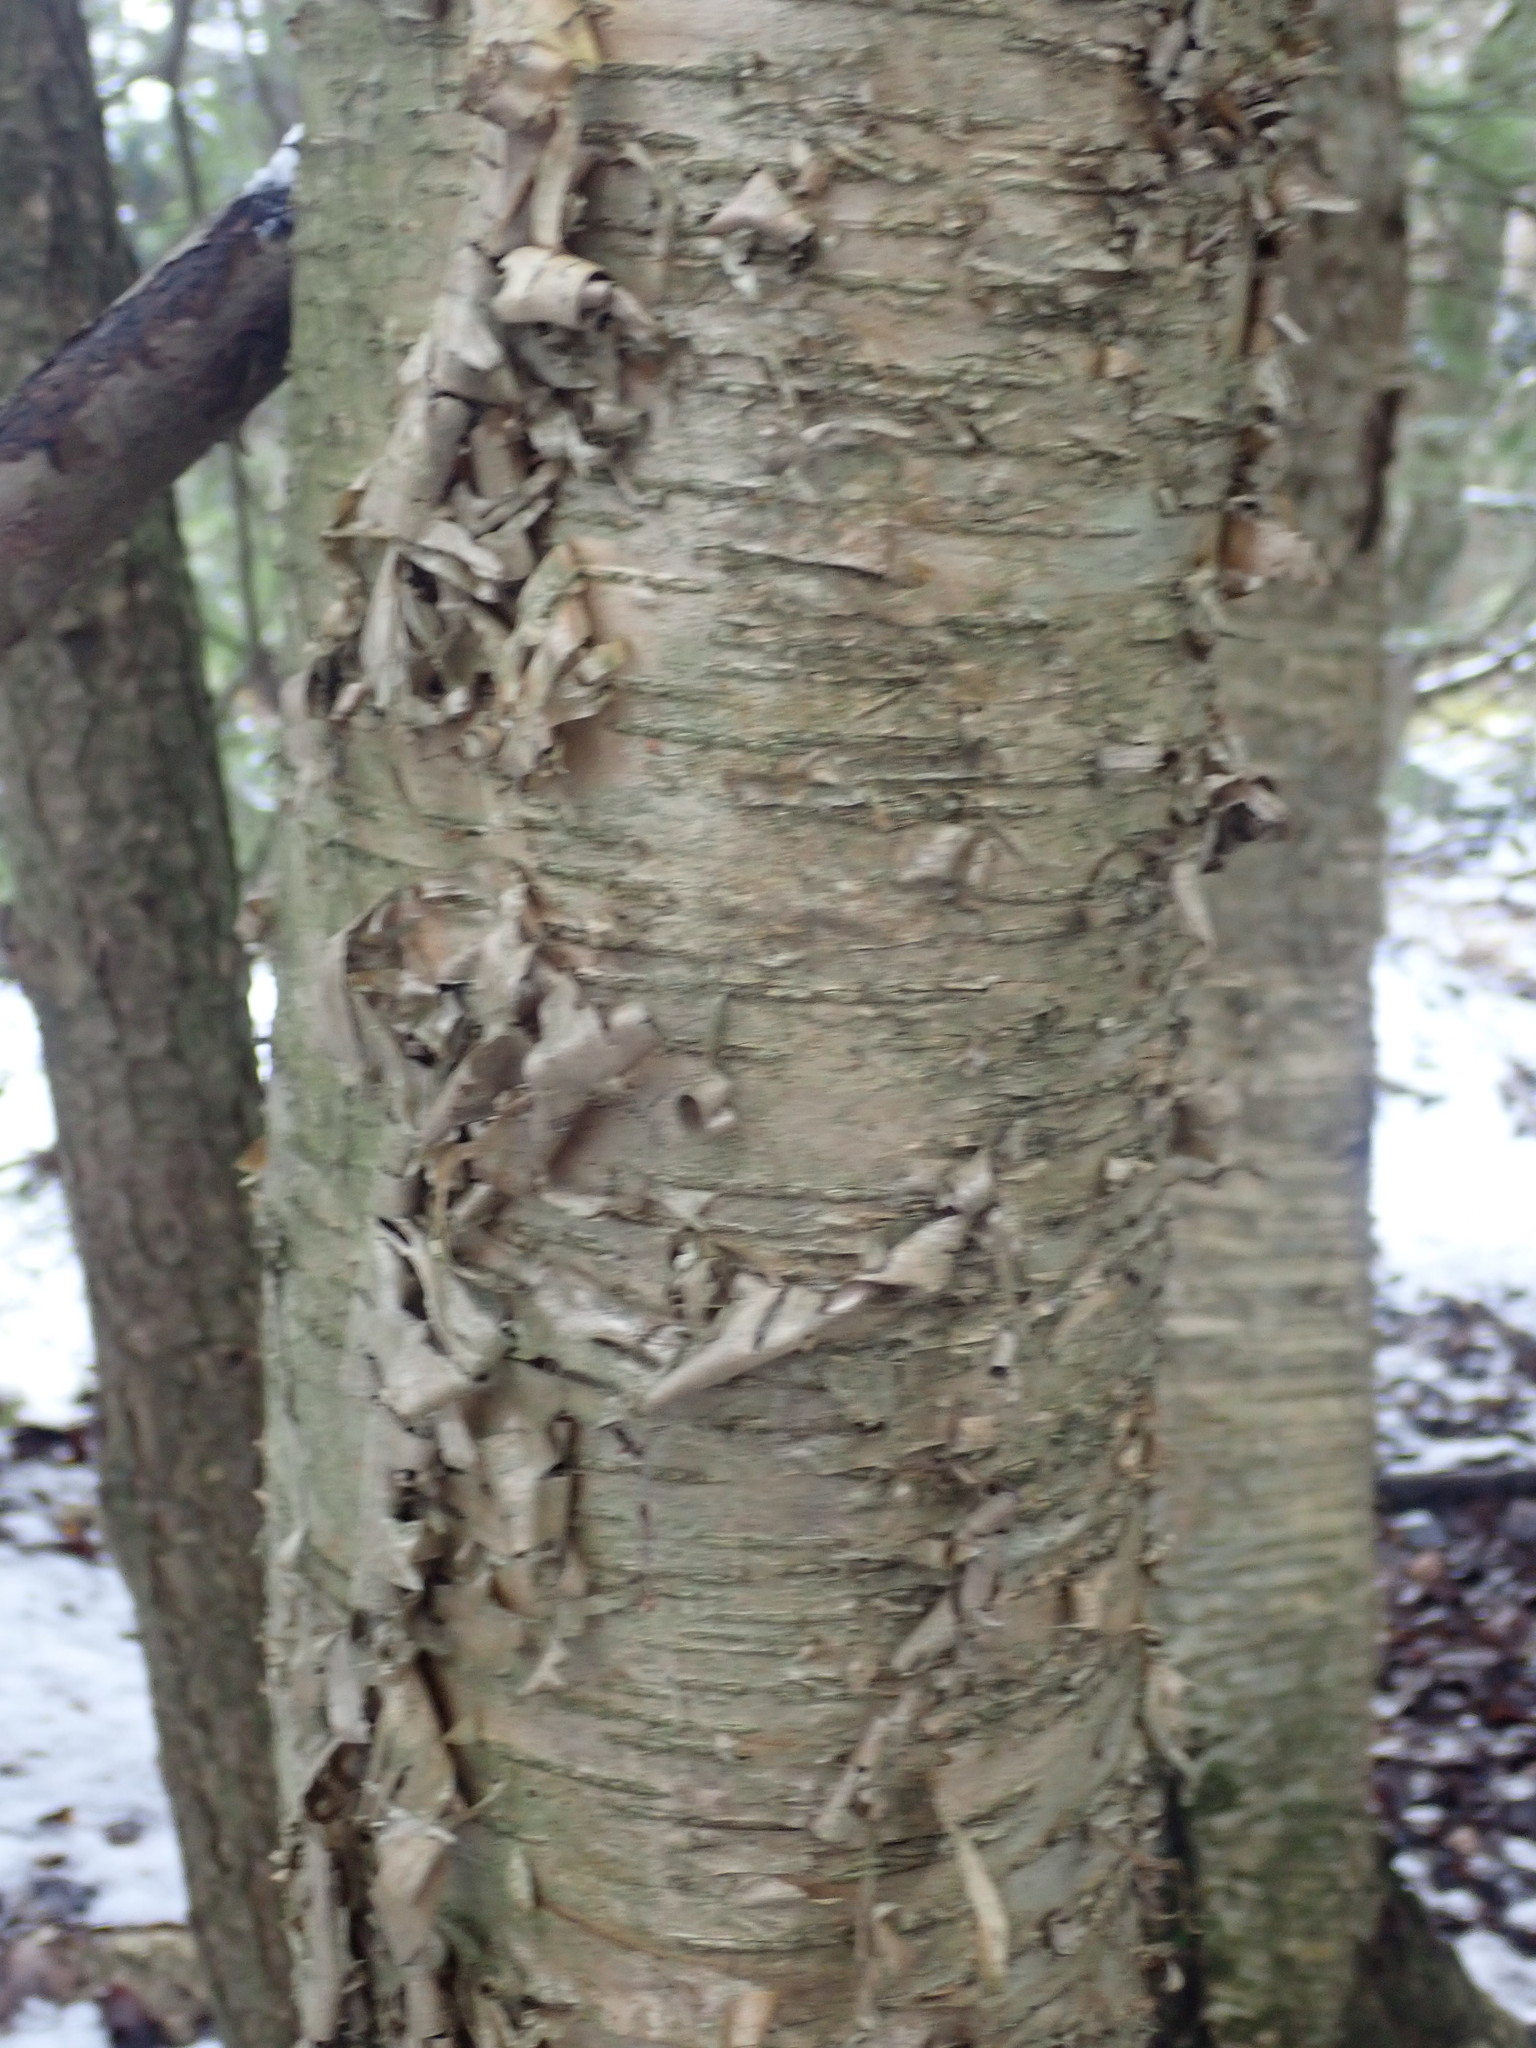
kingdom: Plantae
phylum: Tracheophyta
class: Magnoliopsida
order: Fagales
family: Betulaceae
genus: Betula
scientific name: Betula alleghaniensis
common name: Yellow birch
